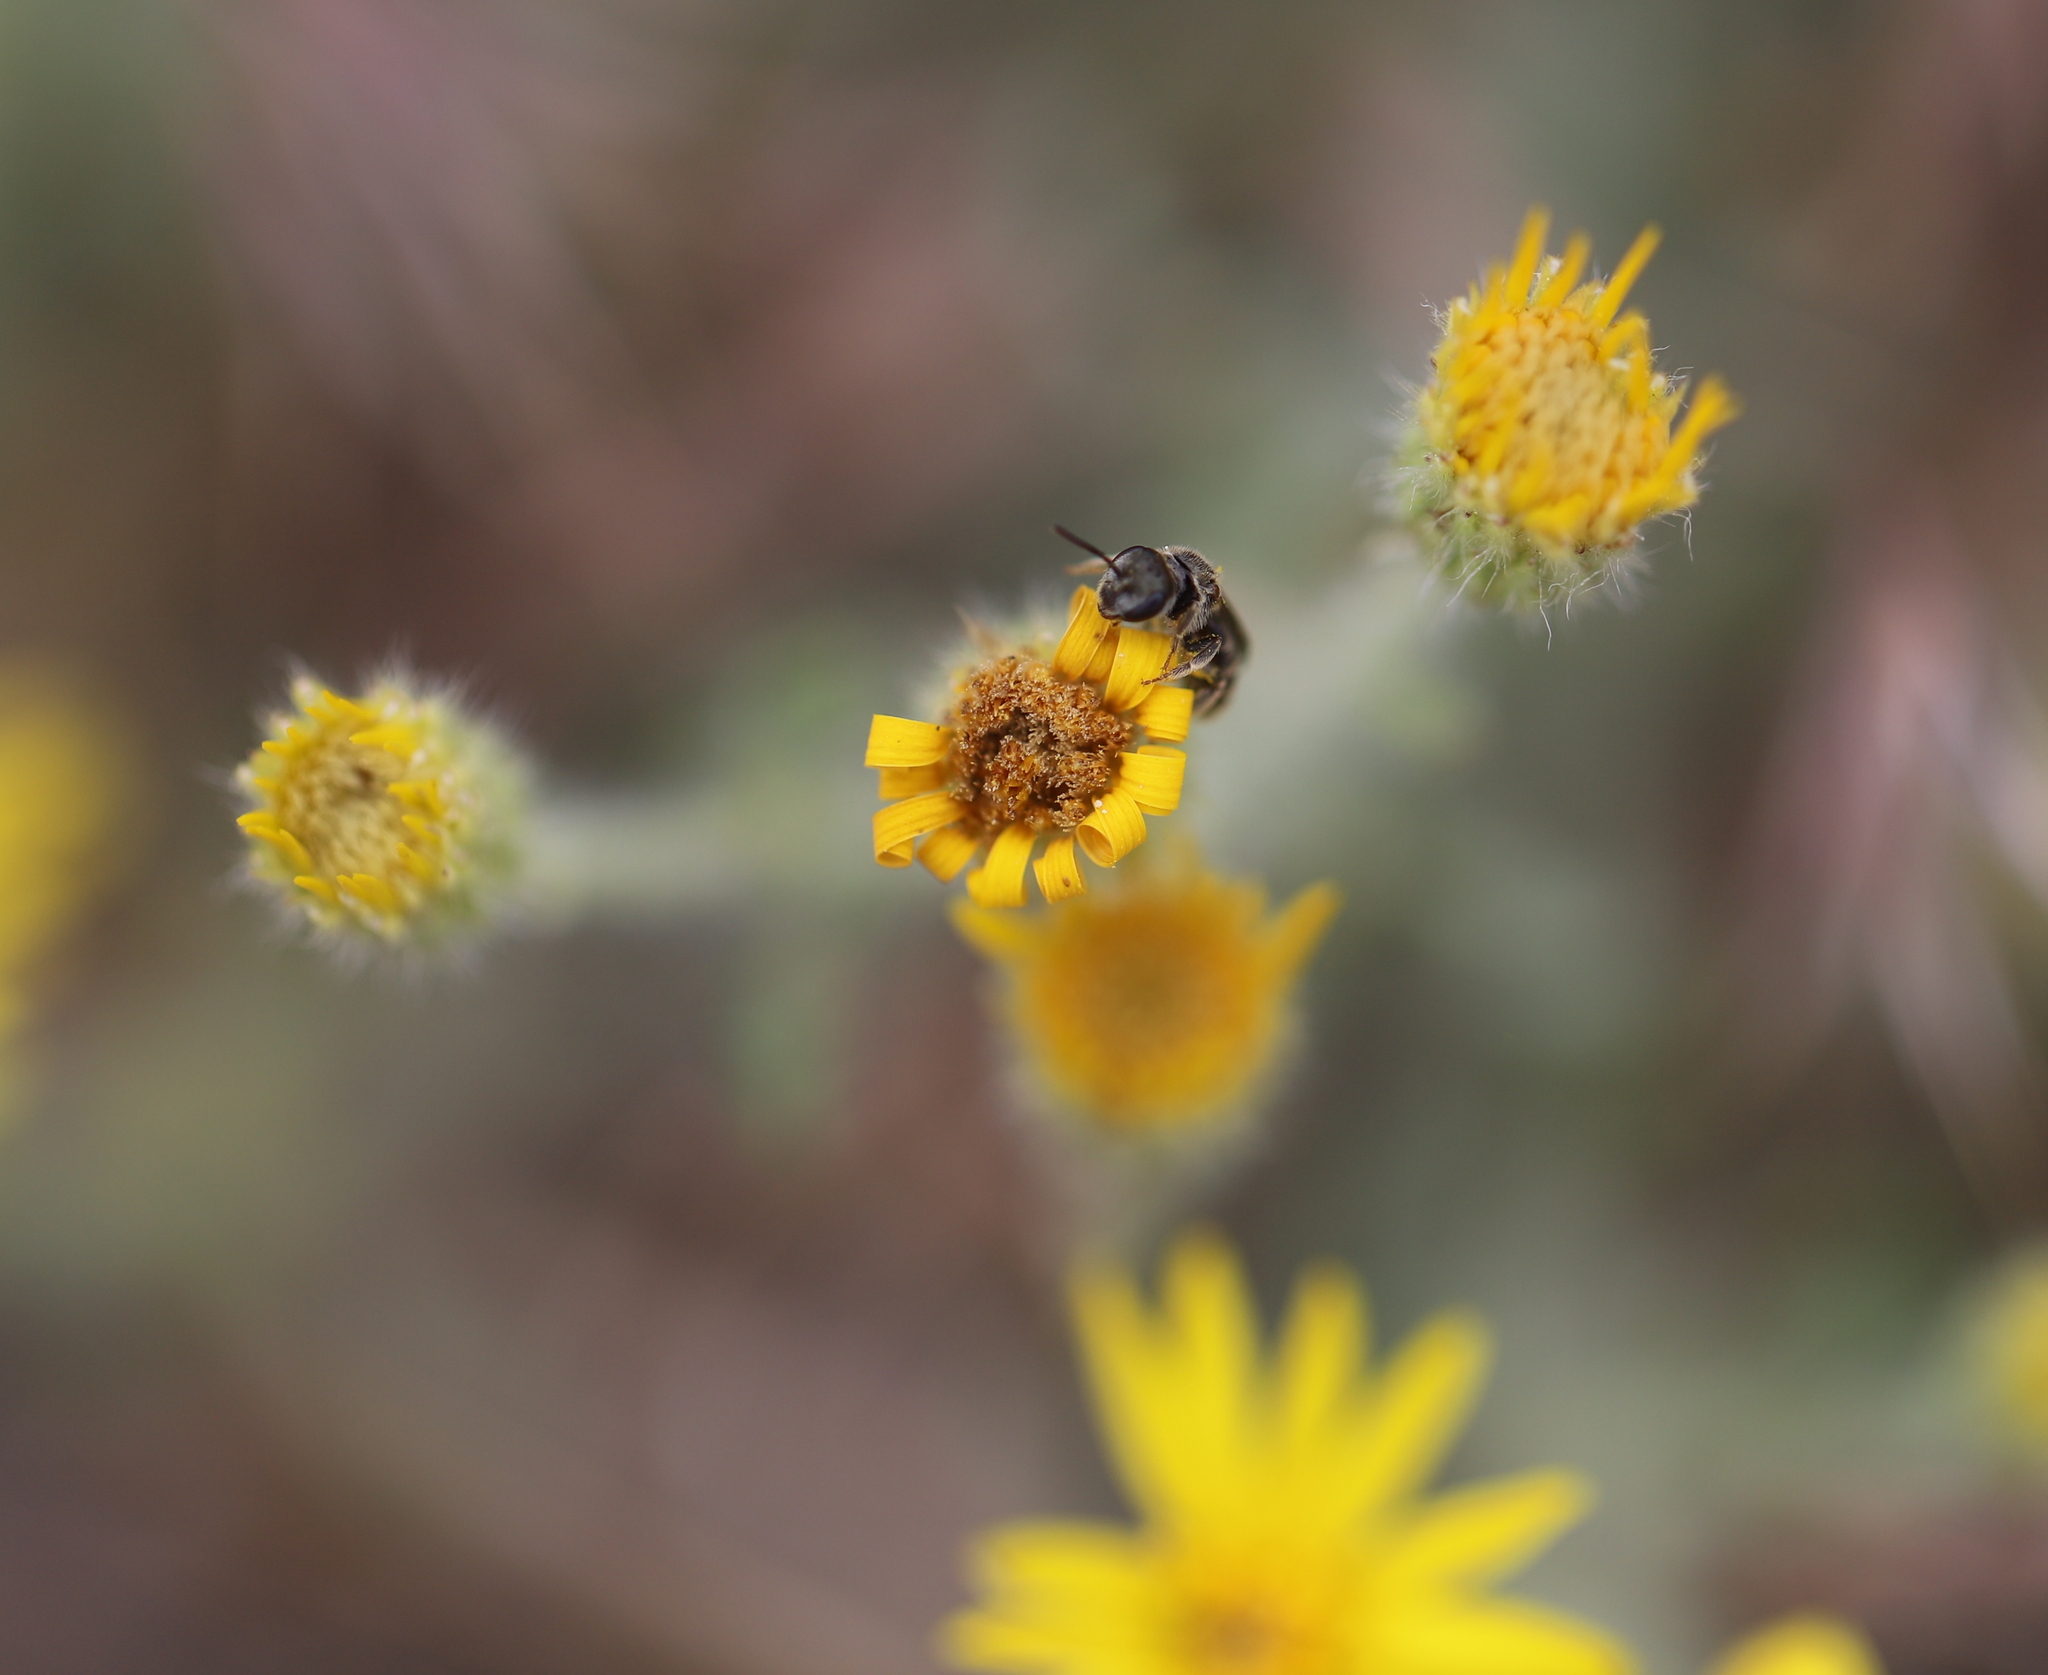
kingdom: Animalia
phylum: Arthropoda
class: Insecta
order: Hymenoptera
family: Halictidae
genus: Halictus
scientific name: Halictus tripartitus
